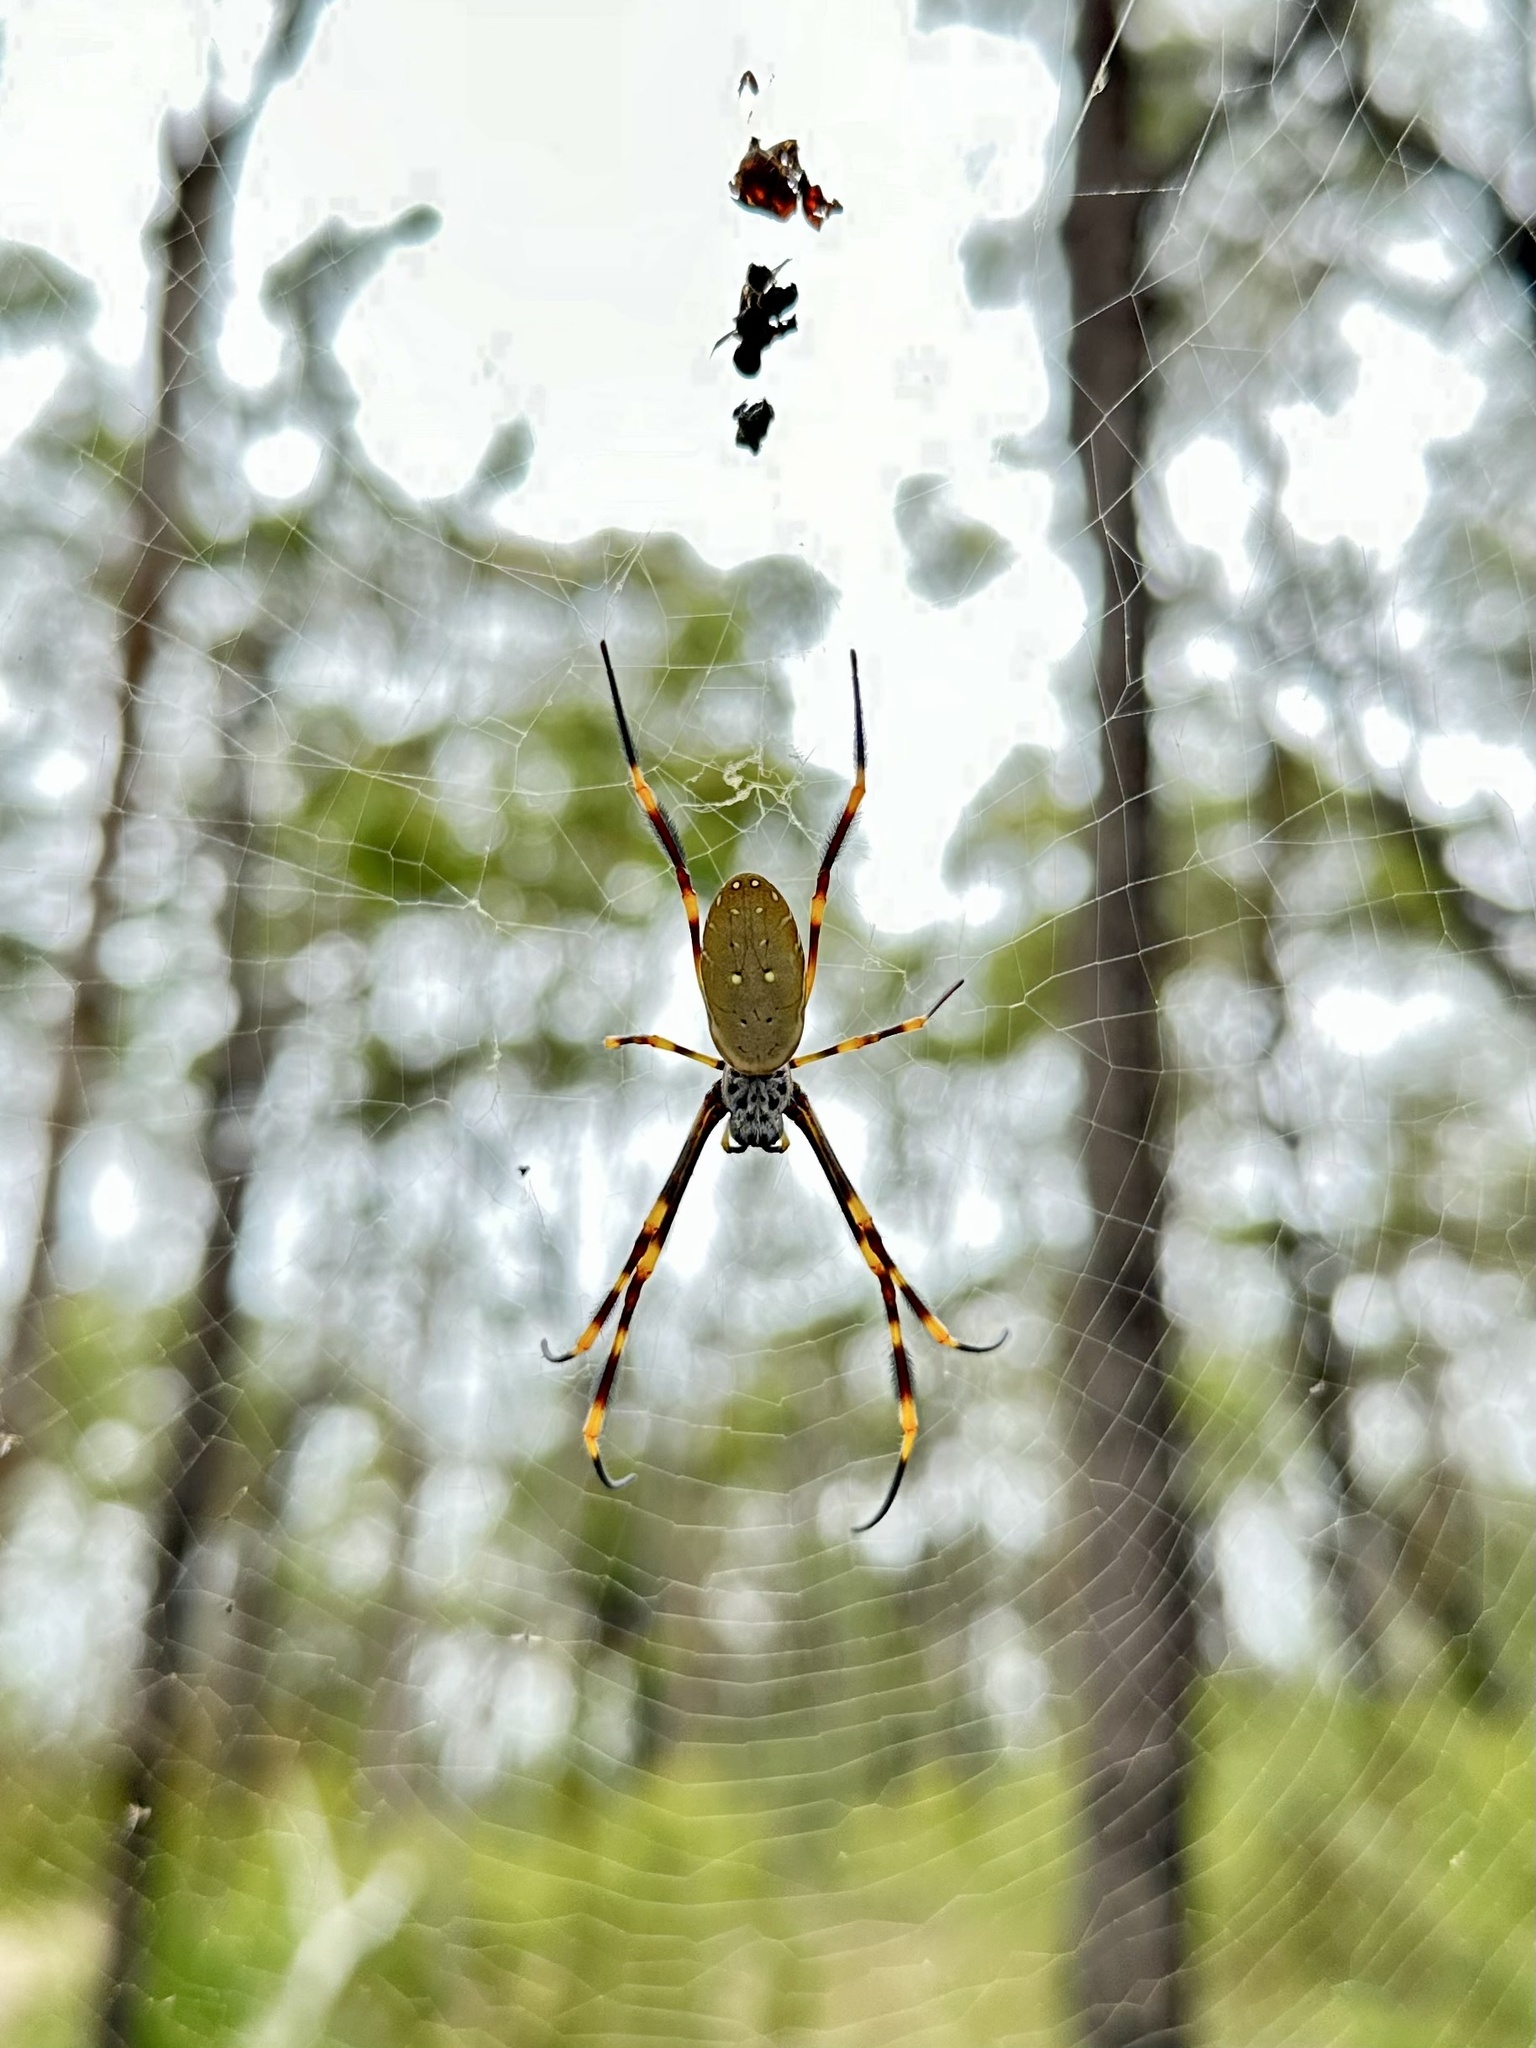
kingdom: Animalia
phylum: Arthropoda
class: Arachnida
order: Araneae
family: Araneidae
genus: Trichonephila
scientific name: Trichonephila plumipes
